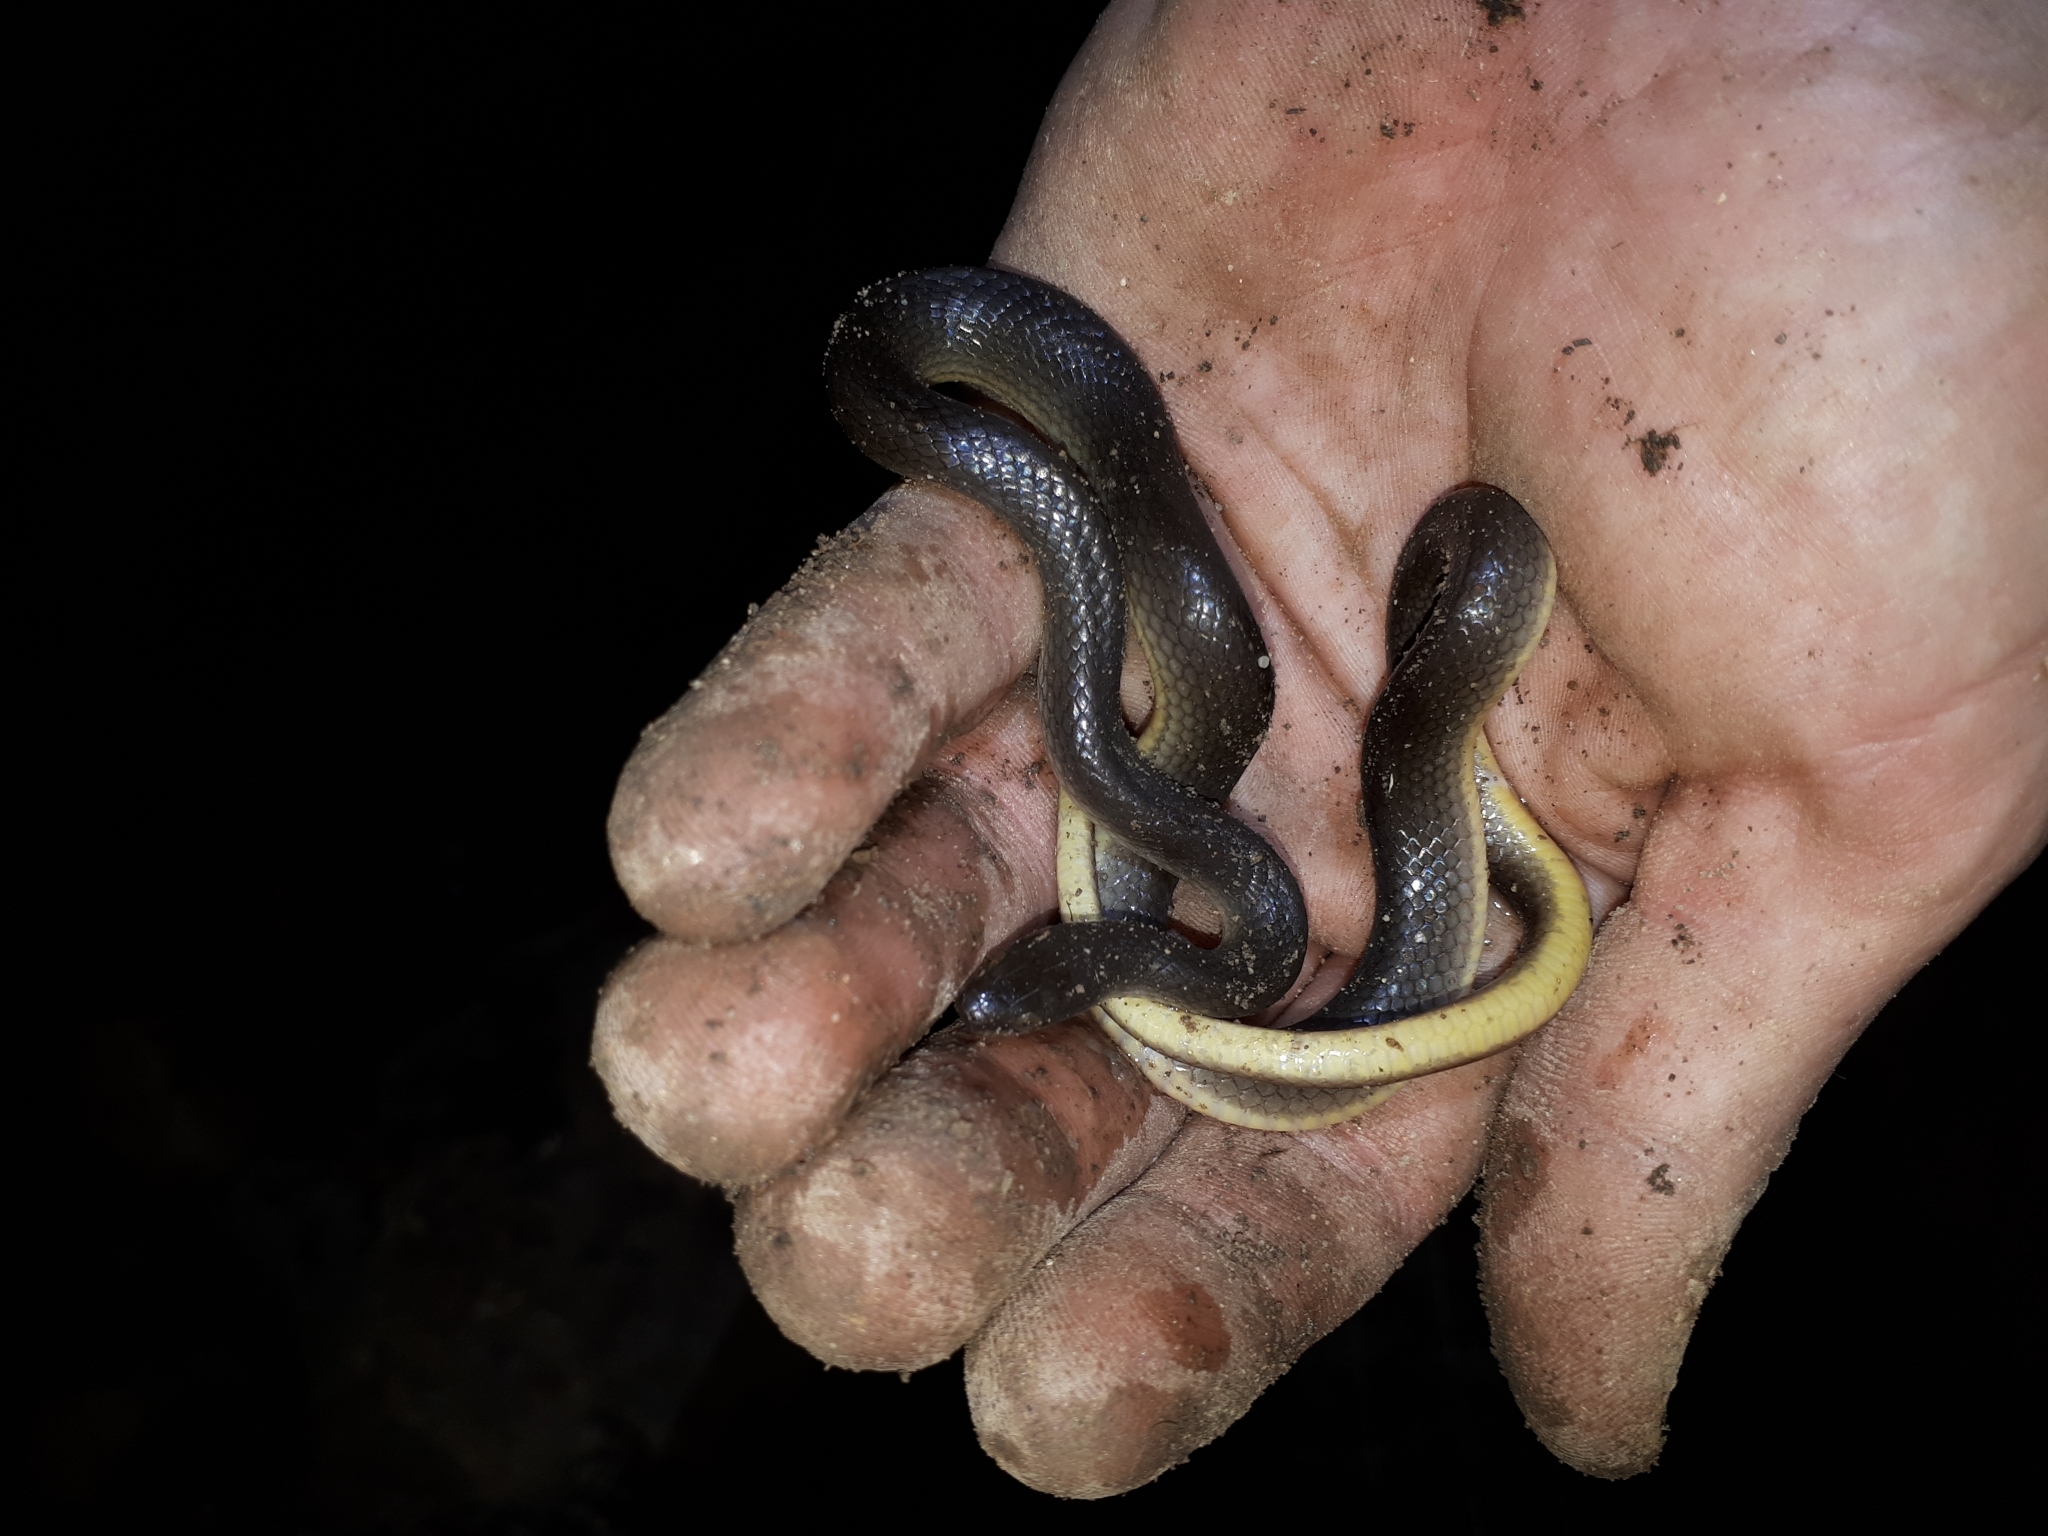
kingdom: Animalia
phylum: Chordata
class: Squamata
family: Lamprophiidae
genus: Lycodonomorphus
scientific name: Lycodonomorphus rufulus
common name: Brown water snake
